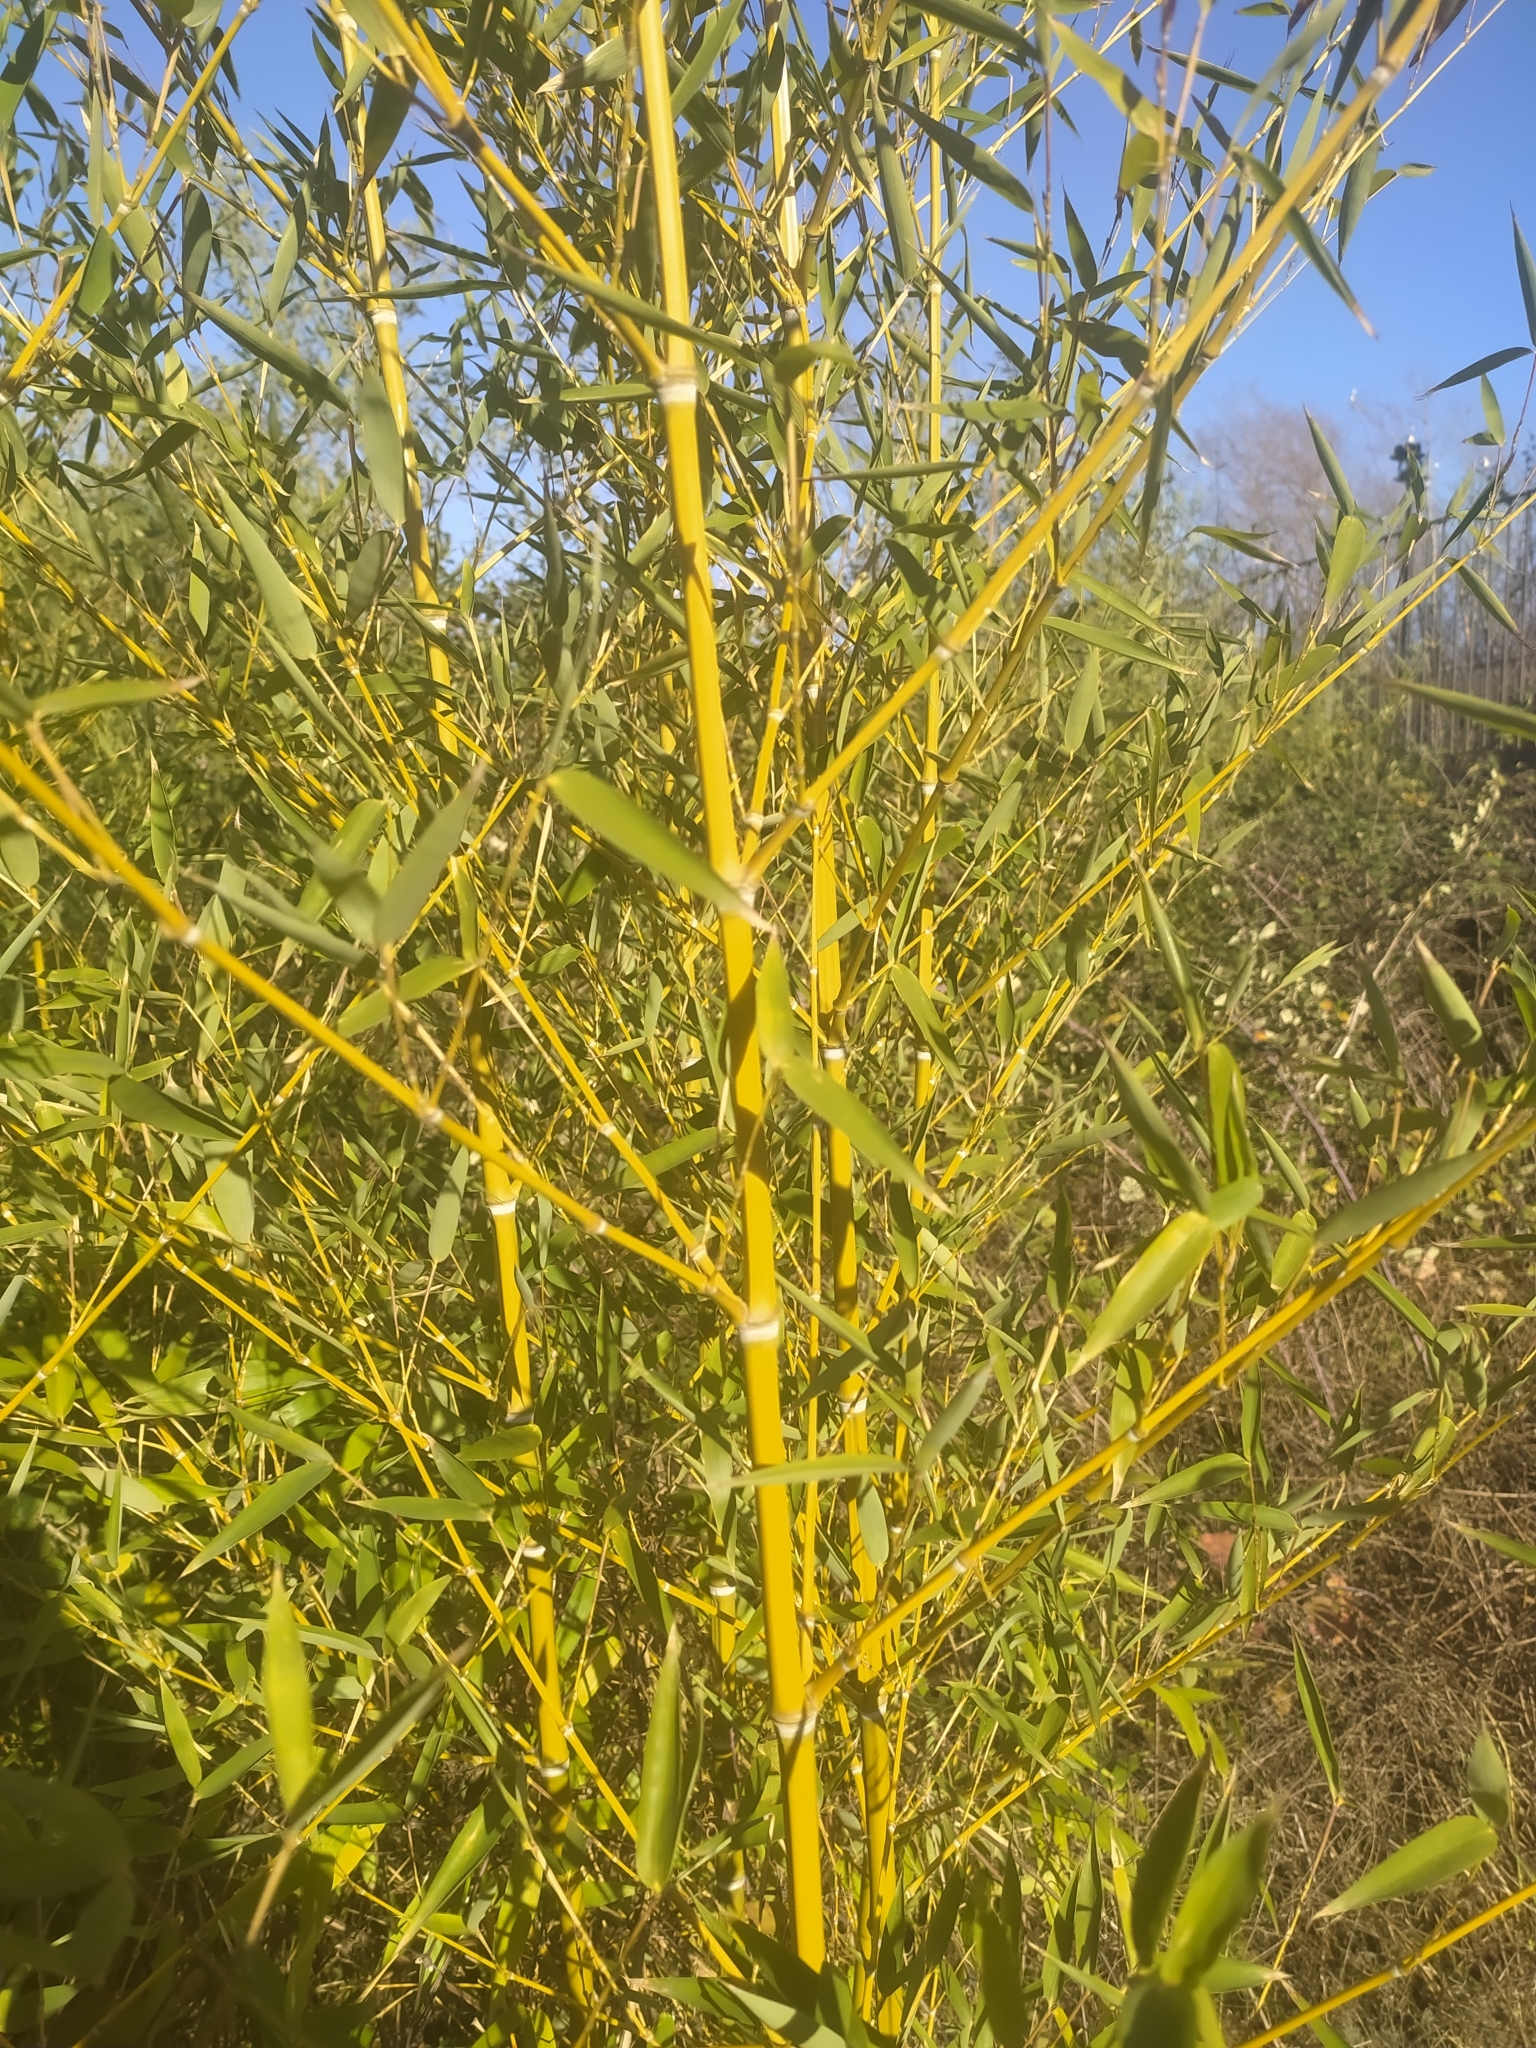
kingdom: Plantae
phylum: Tracheophyta
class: Liliopsida
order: Poales
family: Poaceae
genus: Phyllostachys
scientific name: Phyllostachys aurea
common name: Golden bamboo
